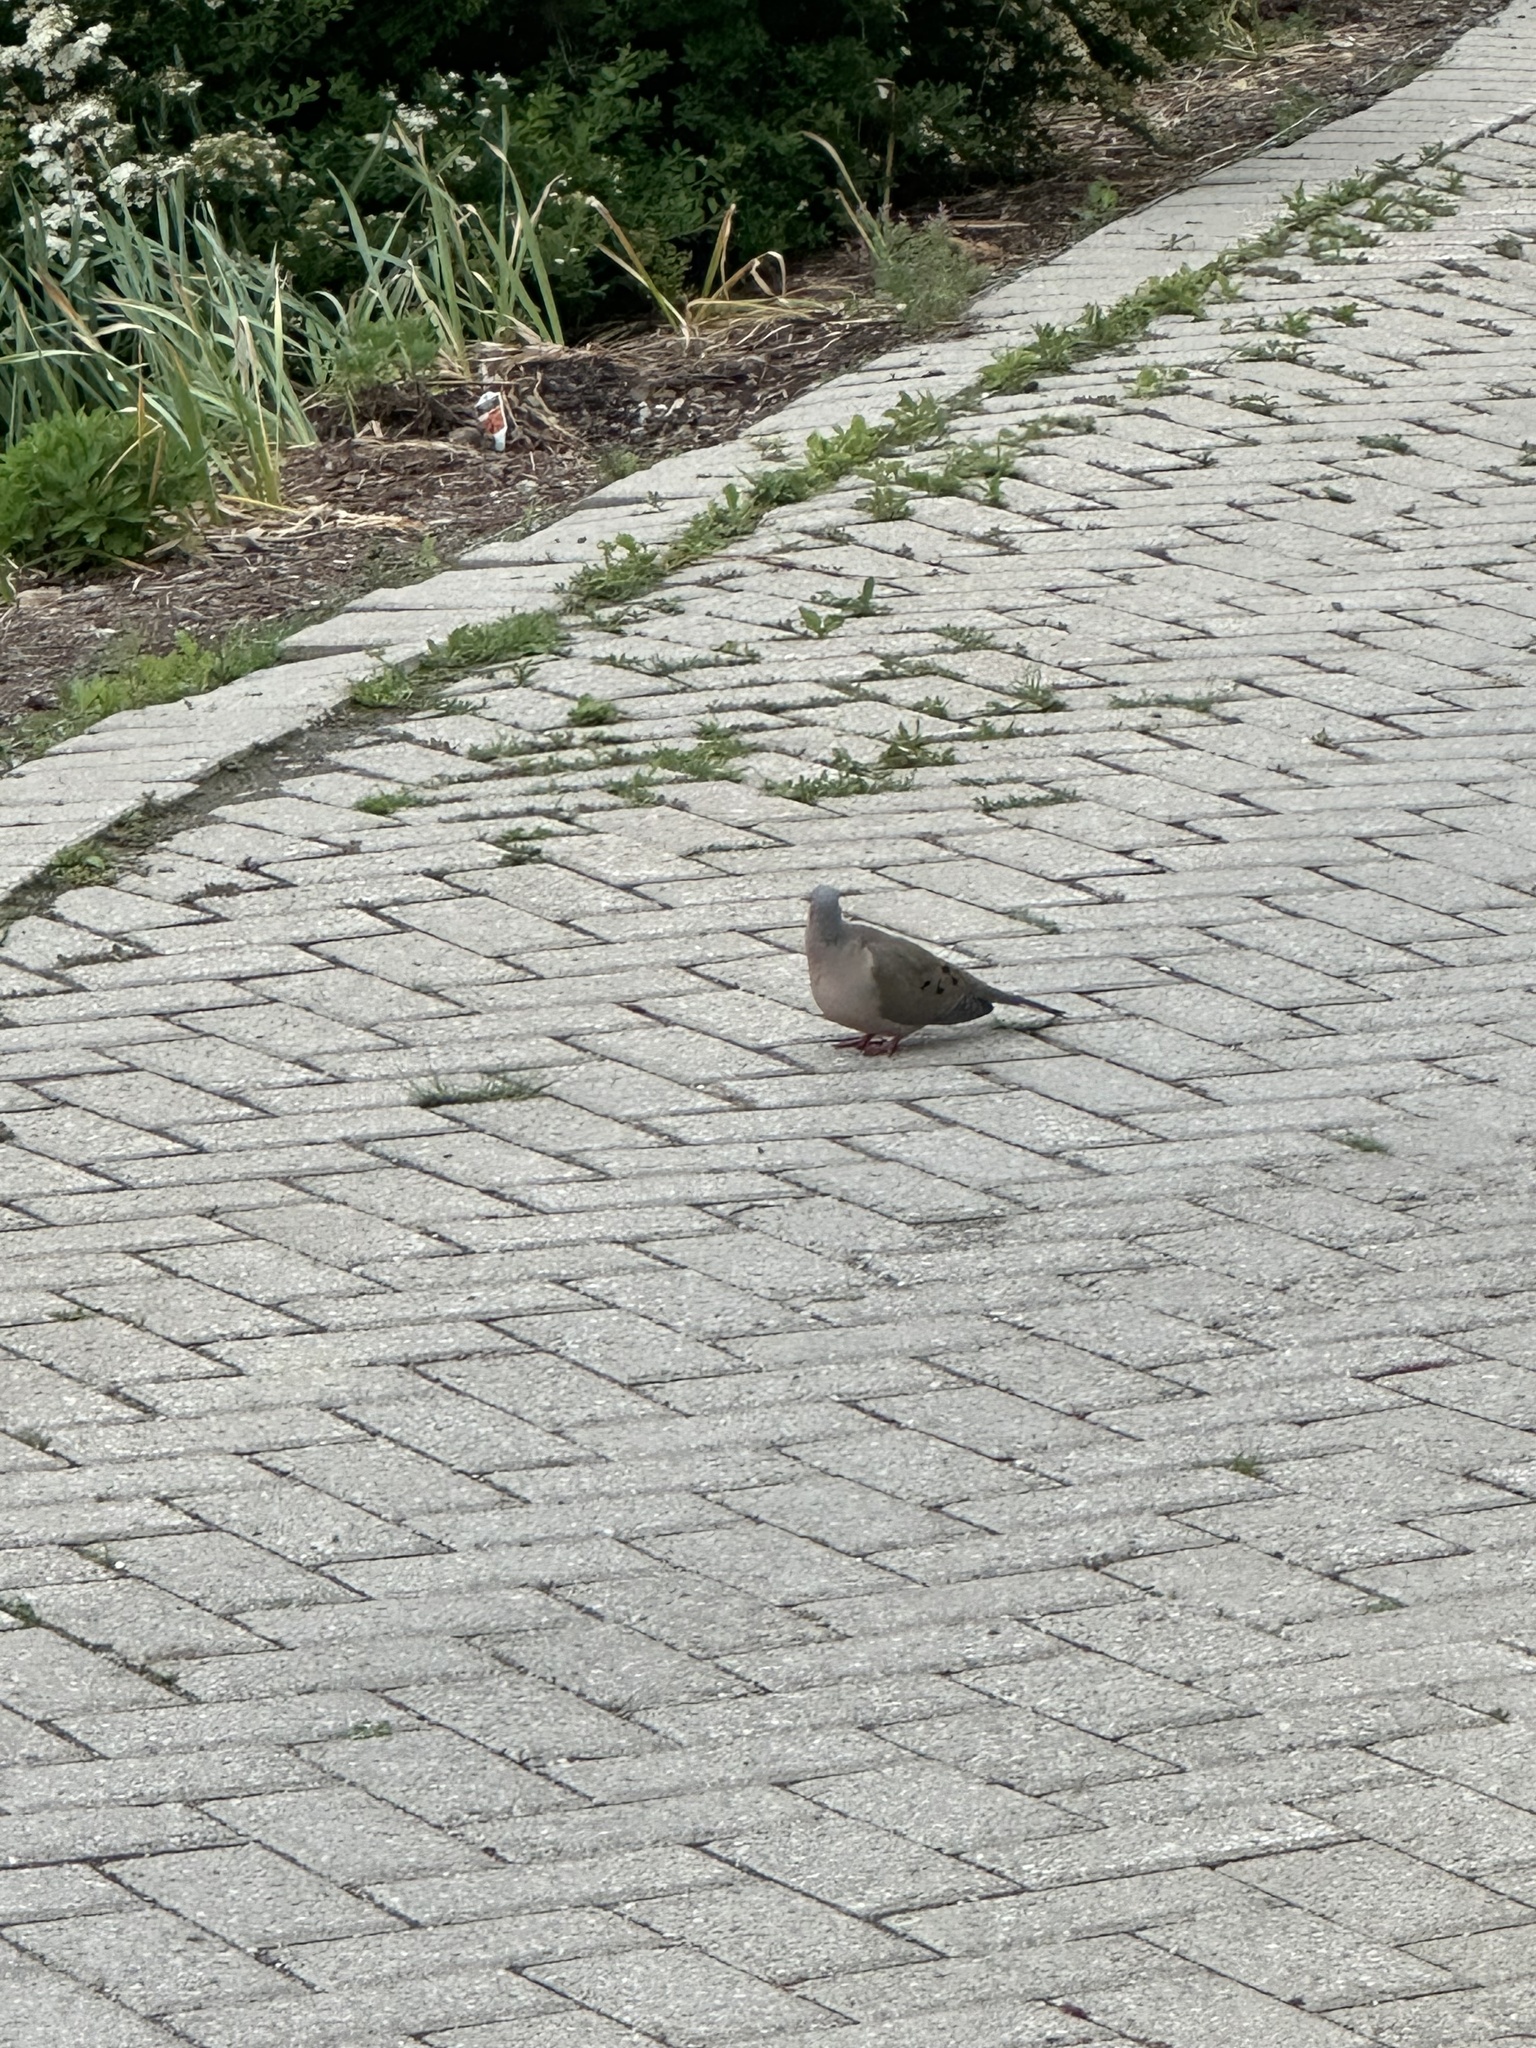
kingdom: Animalia
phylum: Chordata
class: Aves
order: Columbiformes
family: Columbidae
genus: Zenaida
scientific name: Zenaida macroura
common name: Mourning dove
